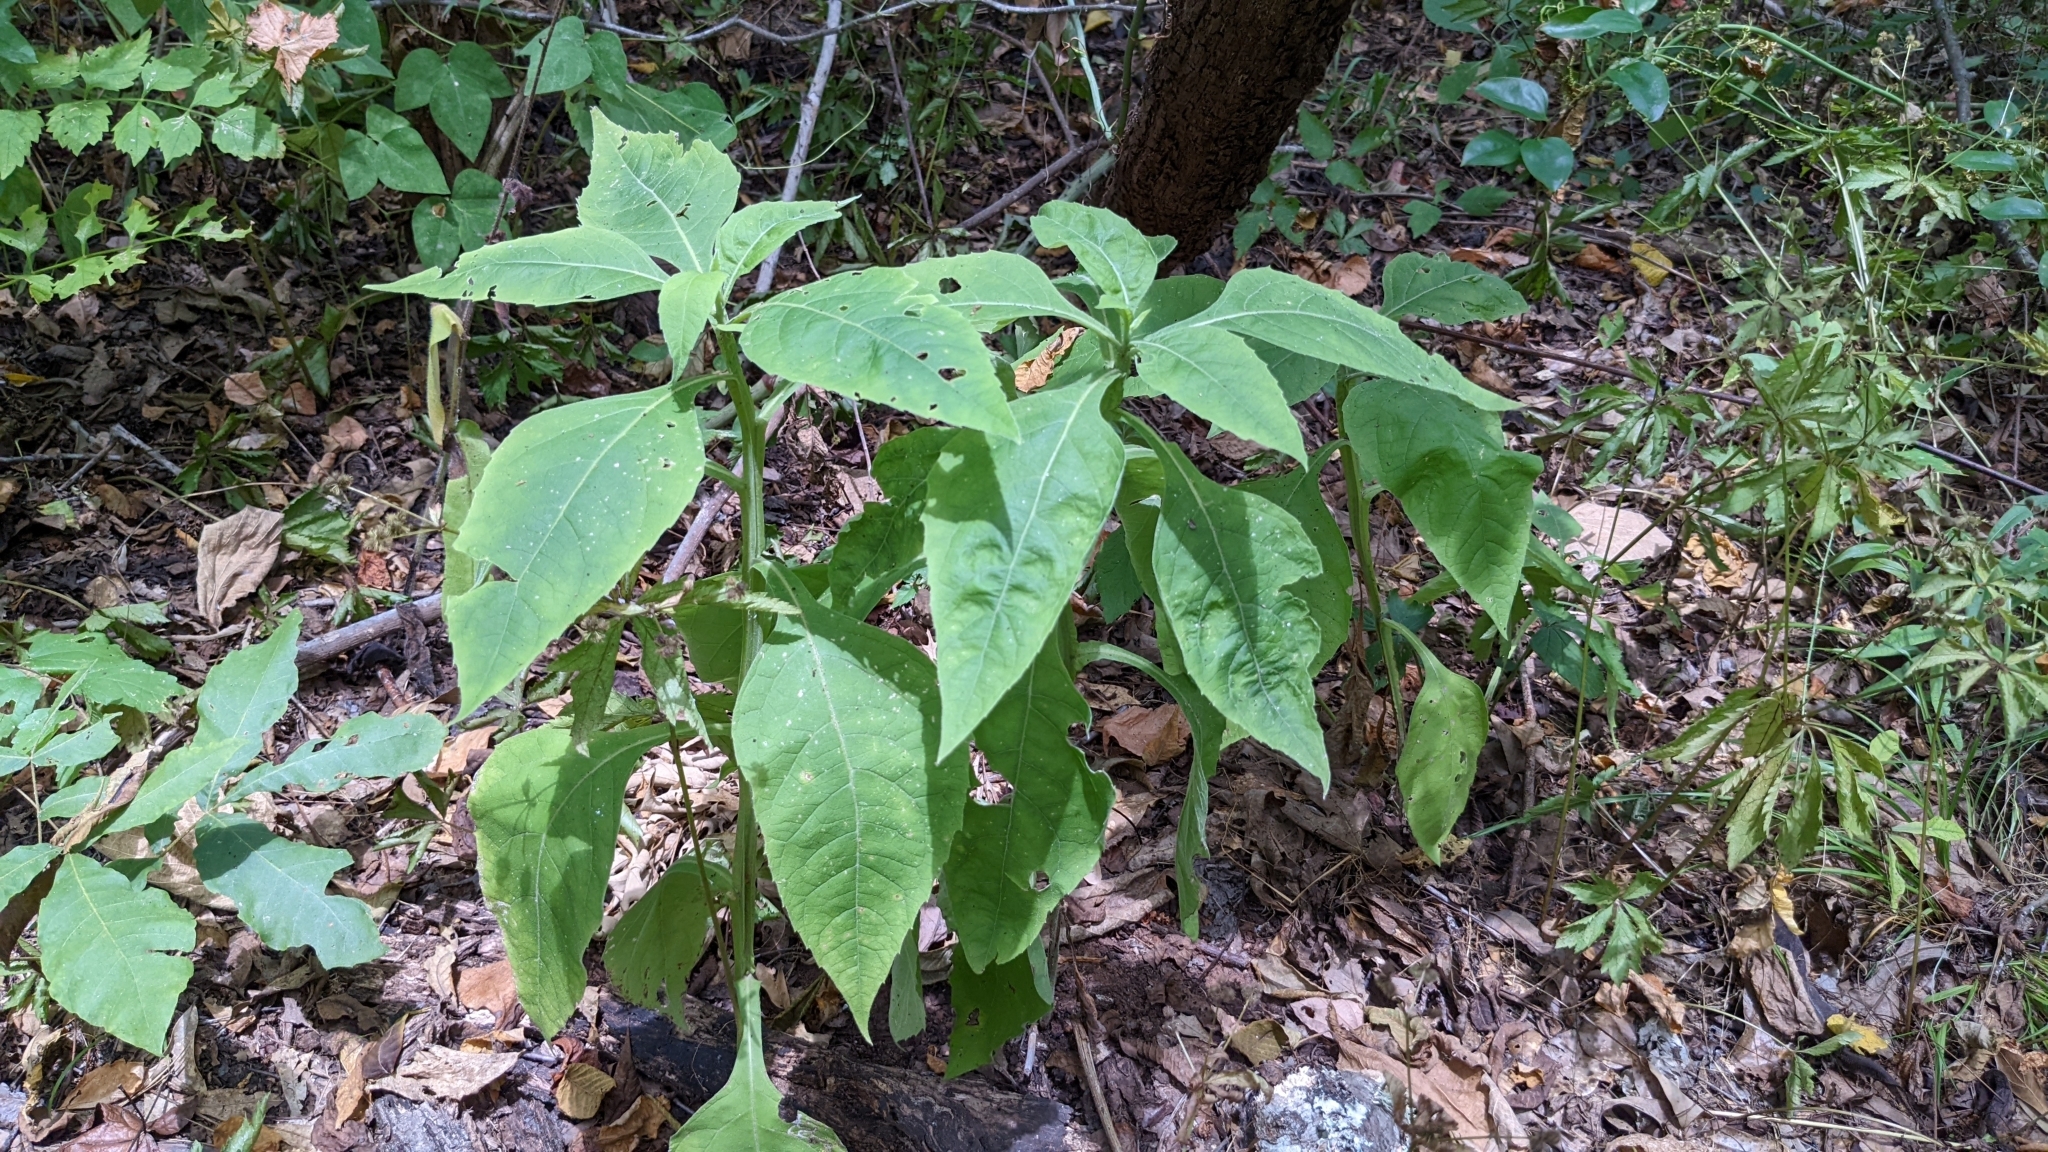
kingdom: Plantae
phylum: Tracheophyta
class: Magnoliopsida
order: Asterales
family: Asteraceae
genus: Verbesina
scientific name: Verbesina virginica
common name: Frostweed
